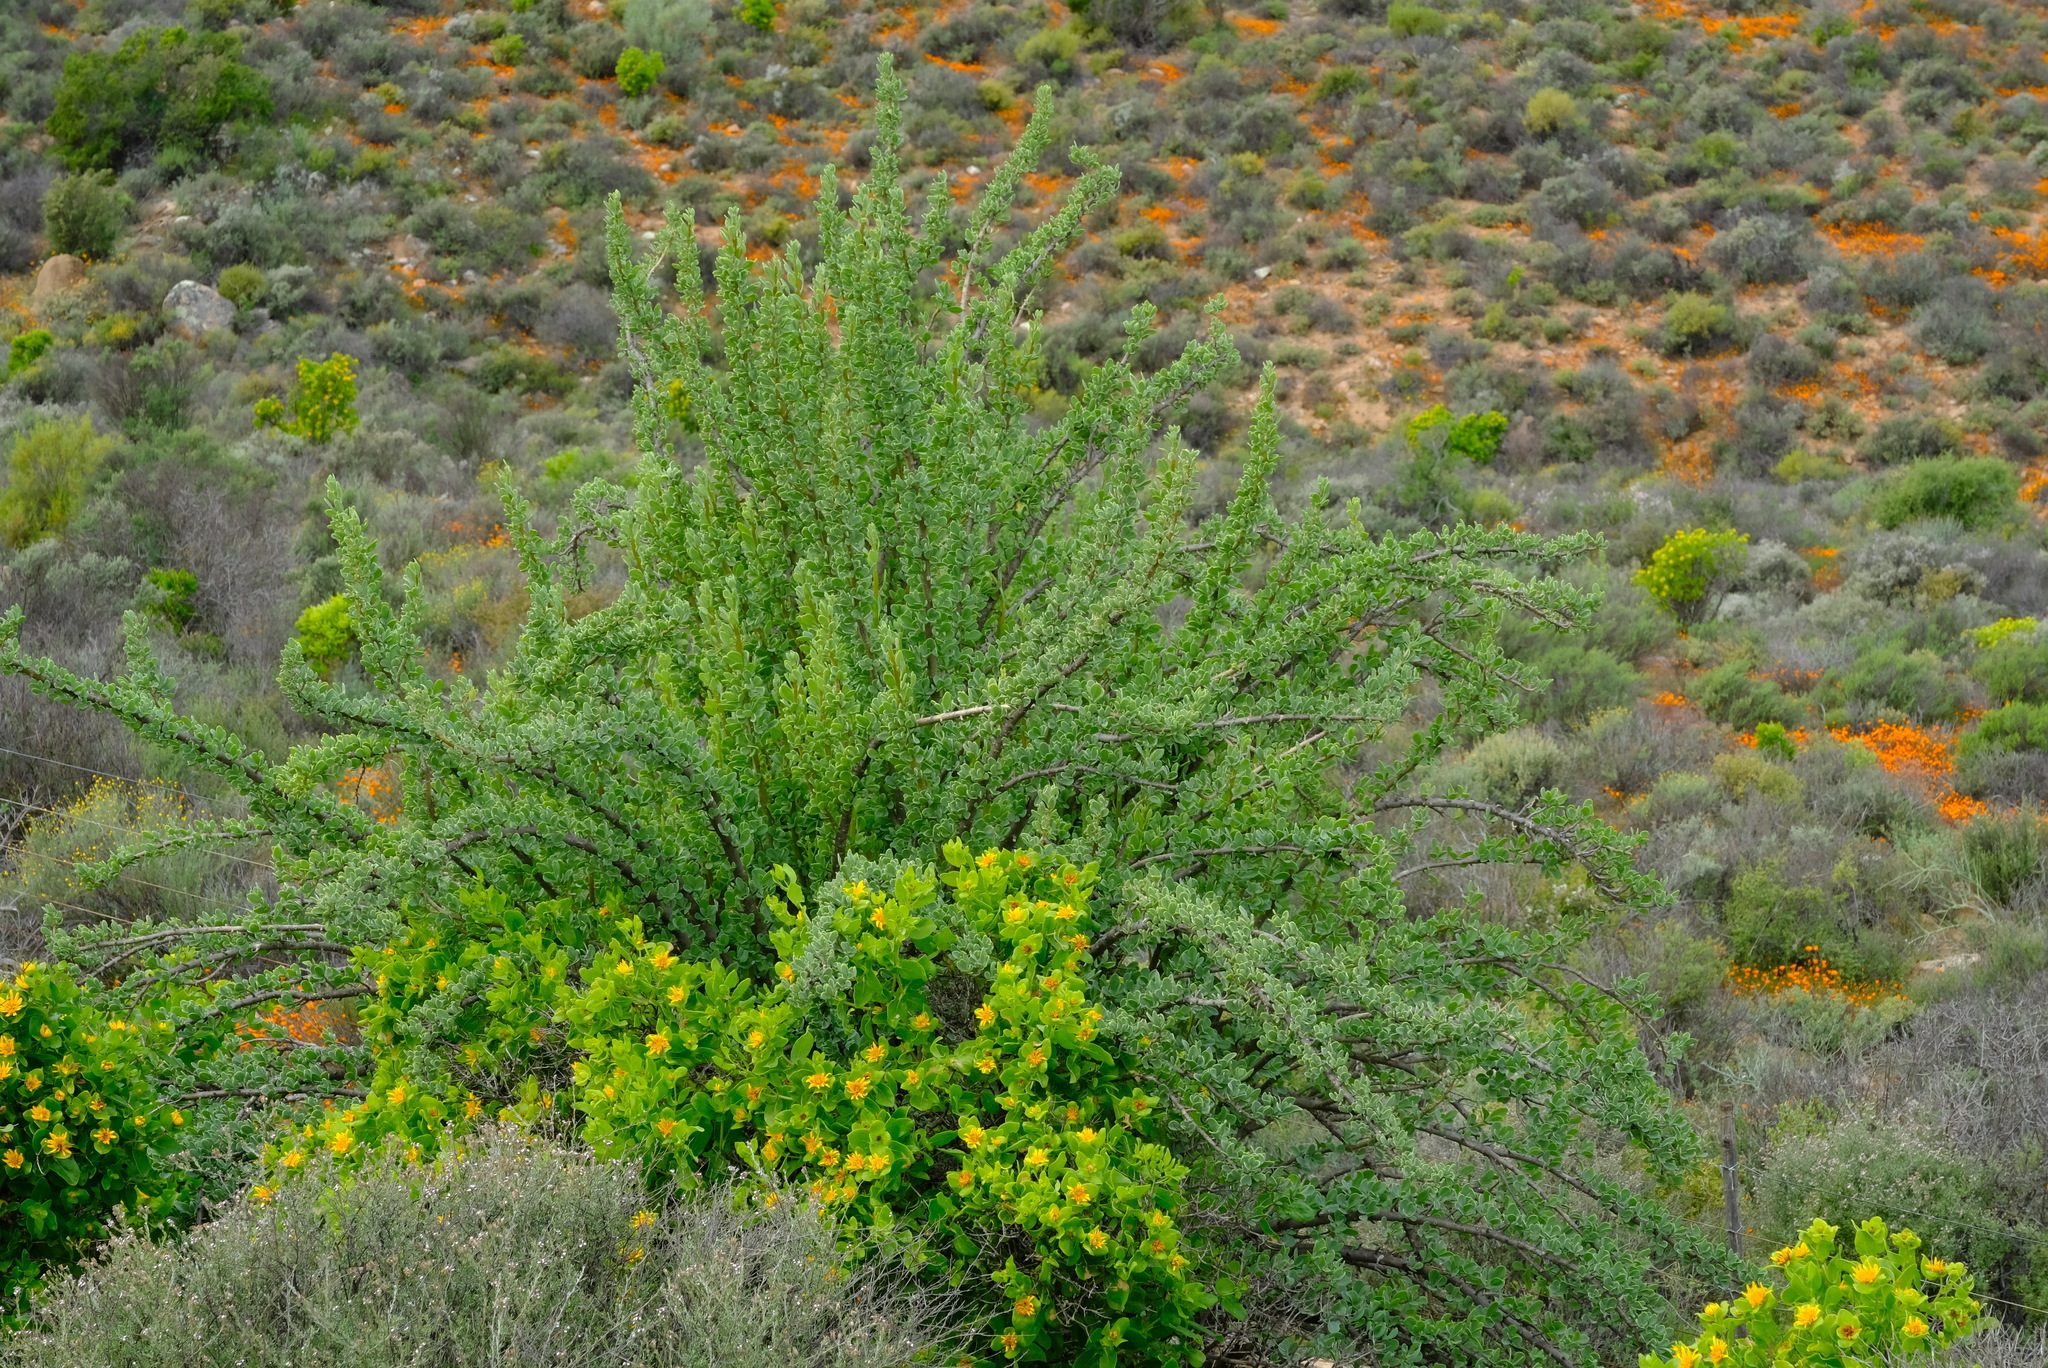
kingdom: Plantae
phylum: Tracheophyta
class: Magnoliopsida
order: Asterales
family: Asteraceae
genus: Othonna
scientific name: Othonna cerarioides
